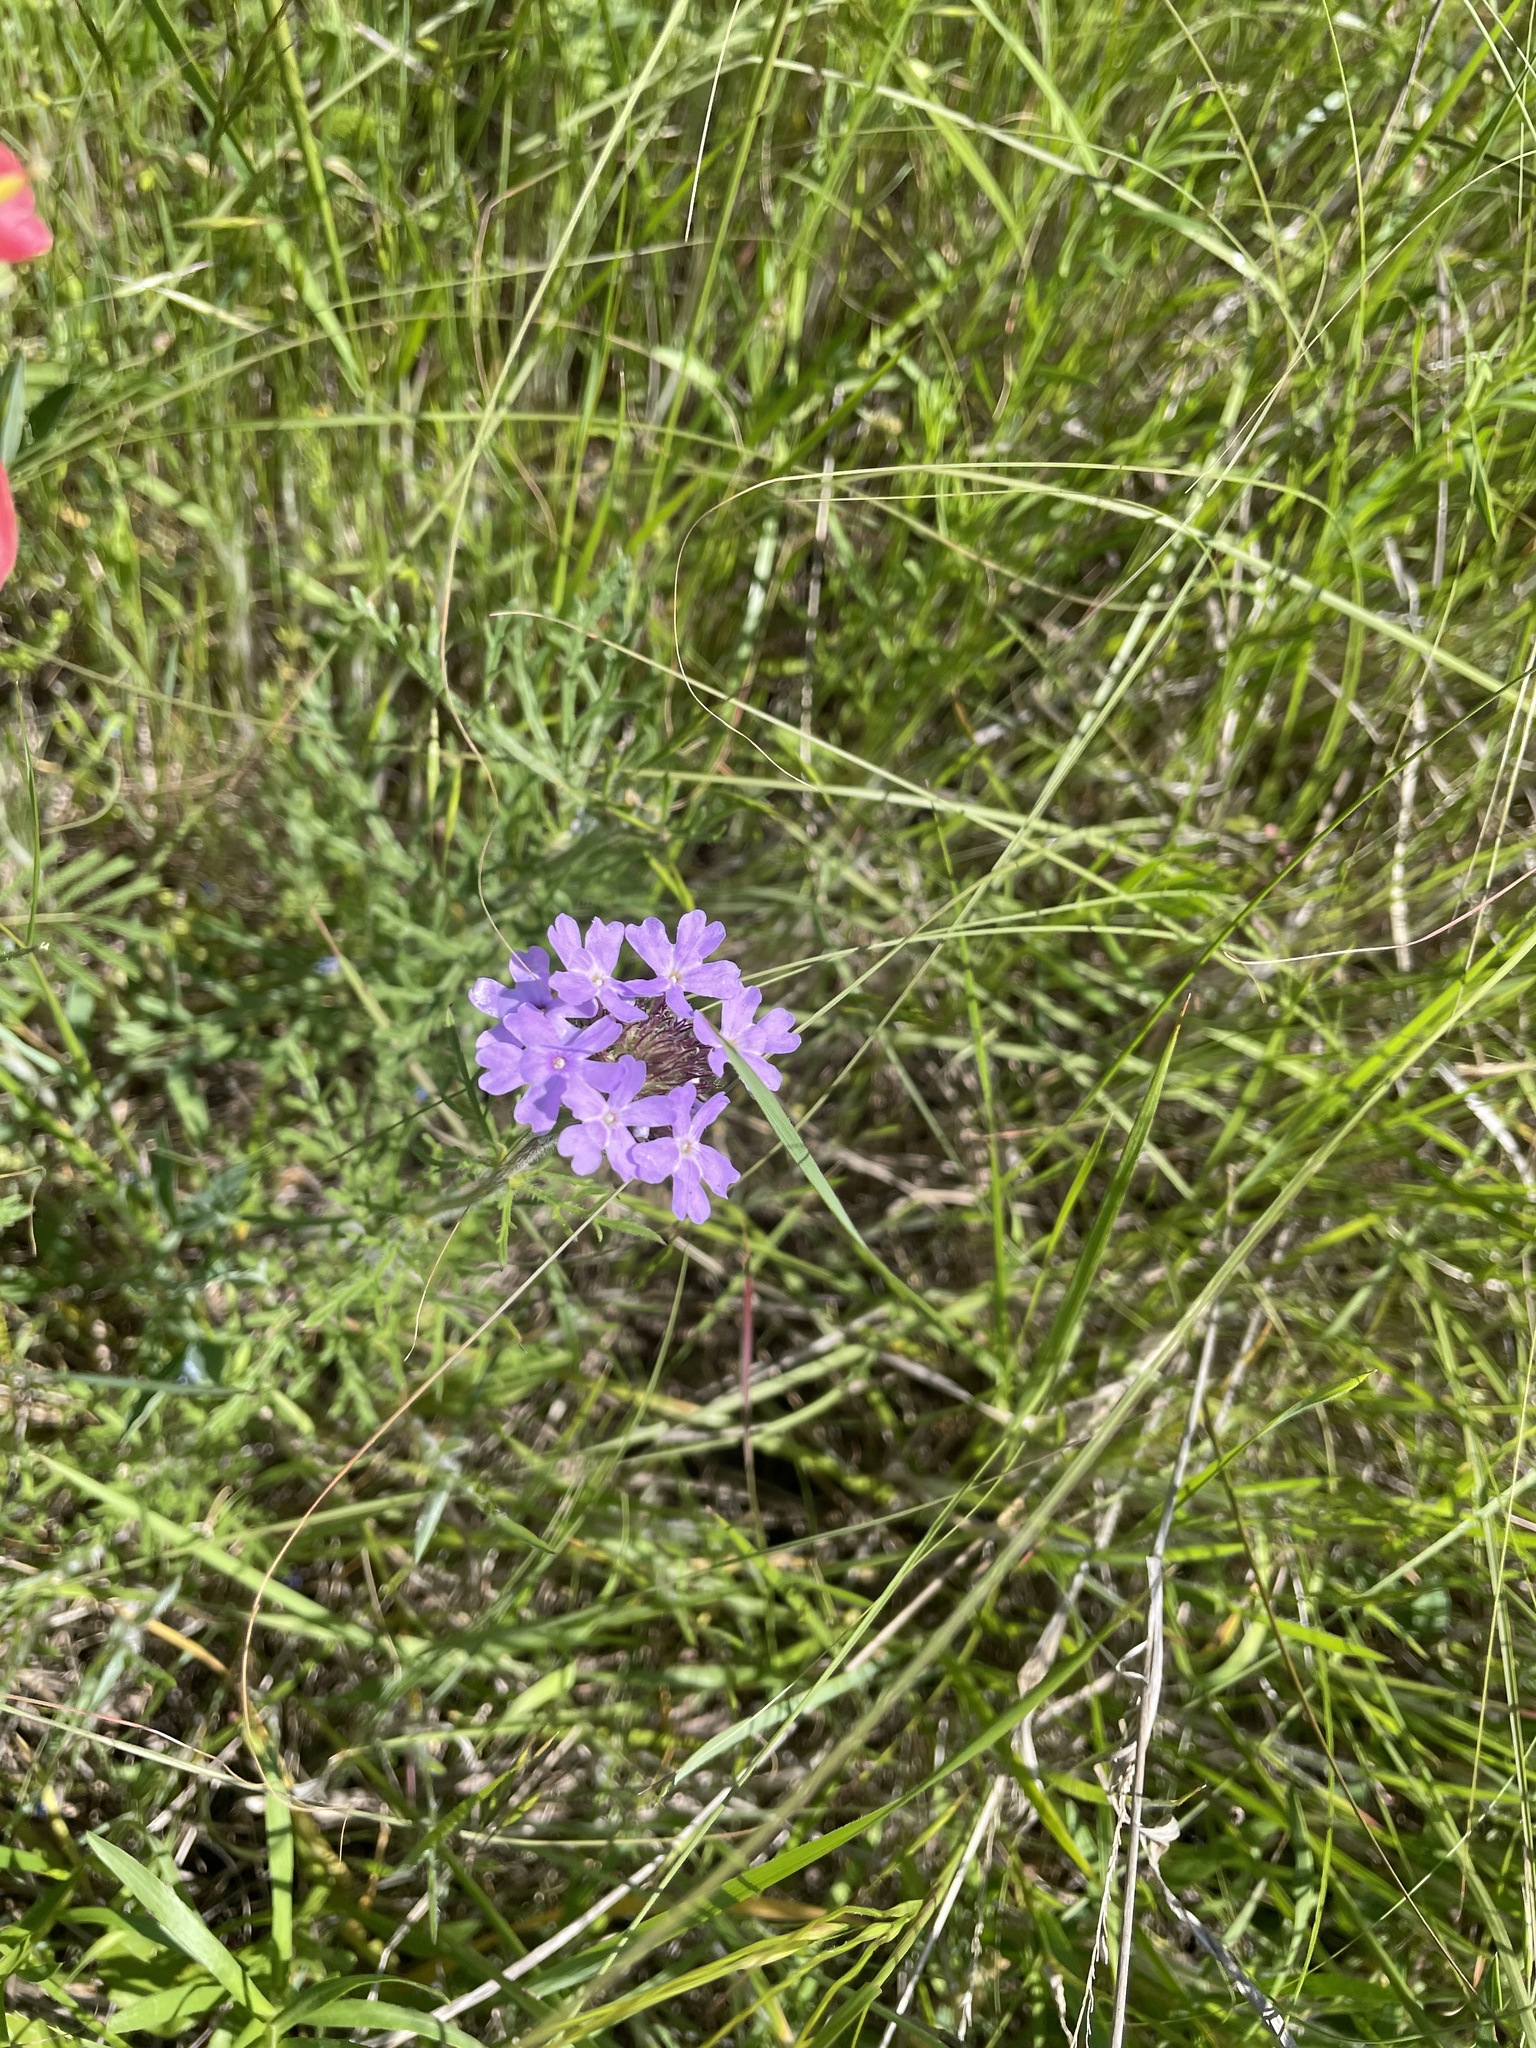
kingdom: Plantae
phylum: Tracheophyta
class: Magnoliopsida
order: Lamiales
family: Verbenaceae
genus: Verbena
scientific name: Verbena bipinnatifida
